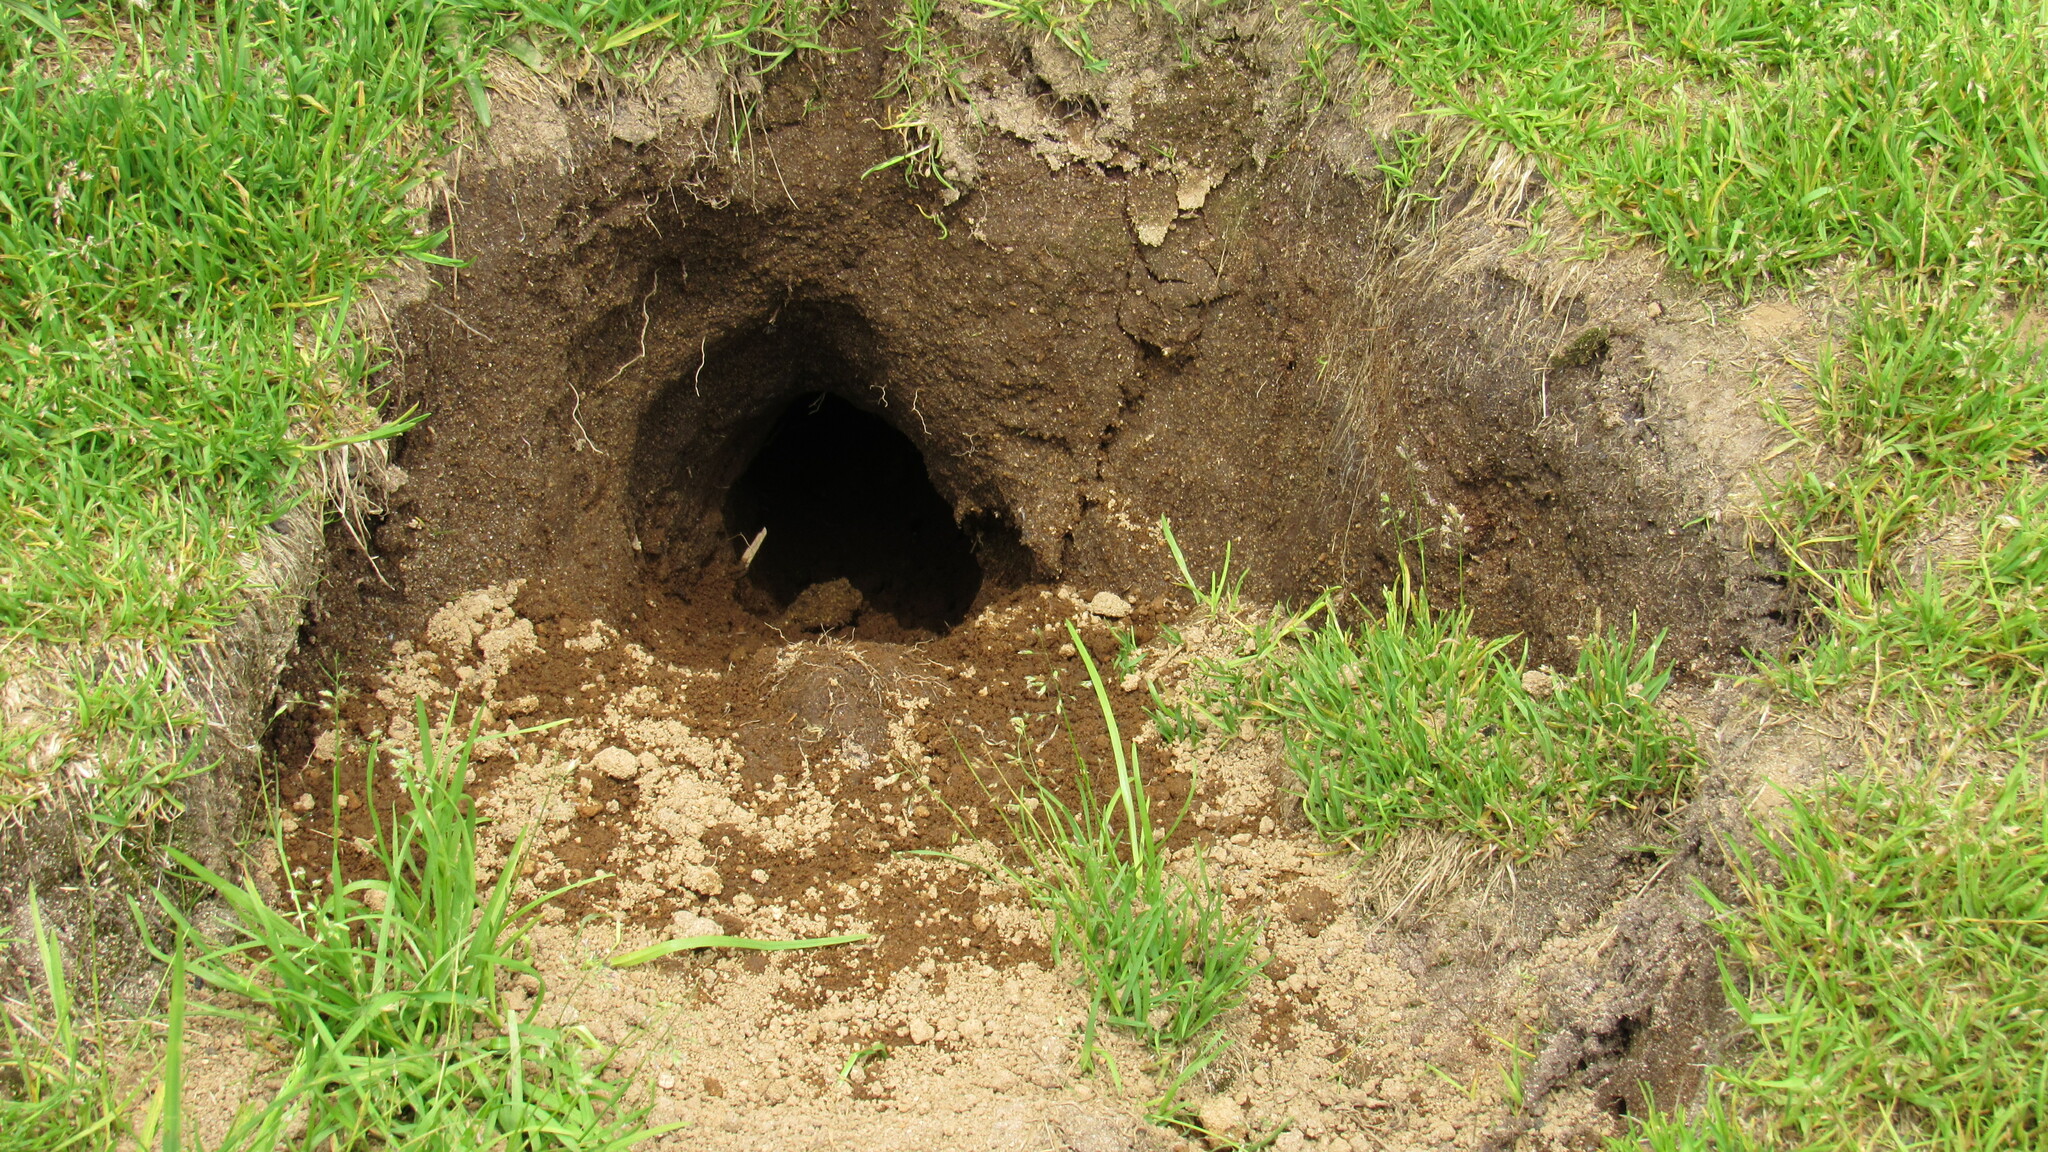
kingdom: Animalia
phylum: Chordata
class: Mammalia
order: Rodentia
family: Sciuridae
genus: Urocitellus
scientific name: Urocitellus parryii
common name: Arctic ground squirrel
